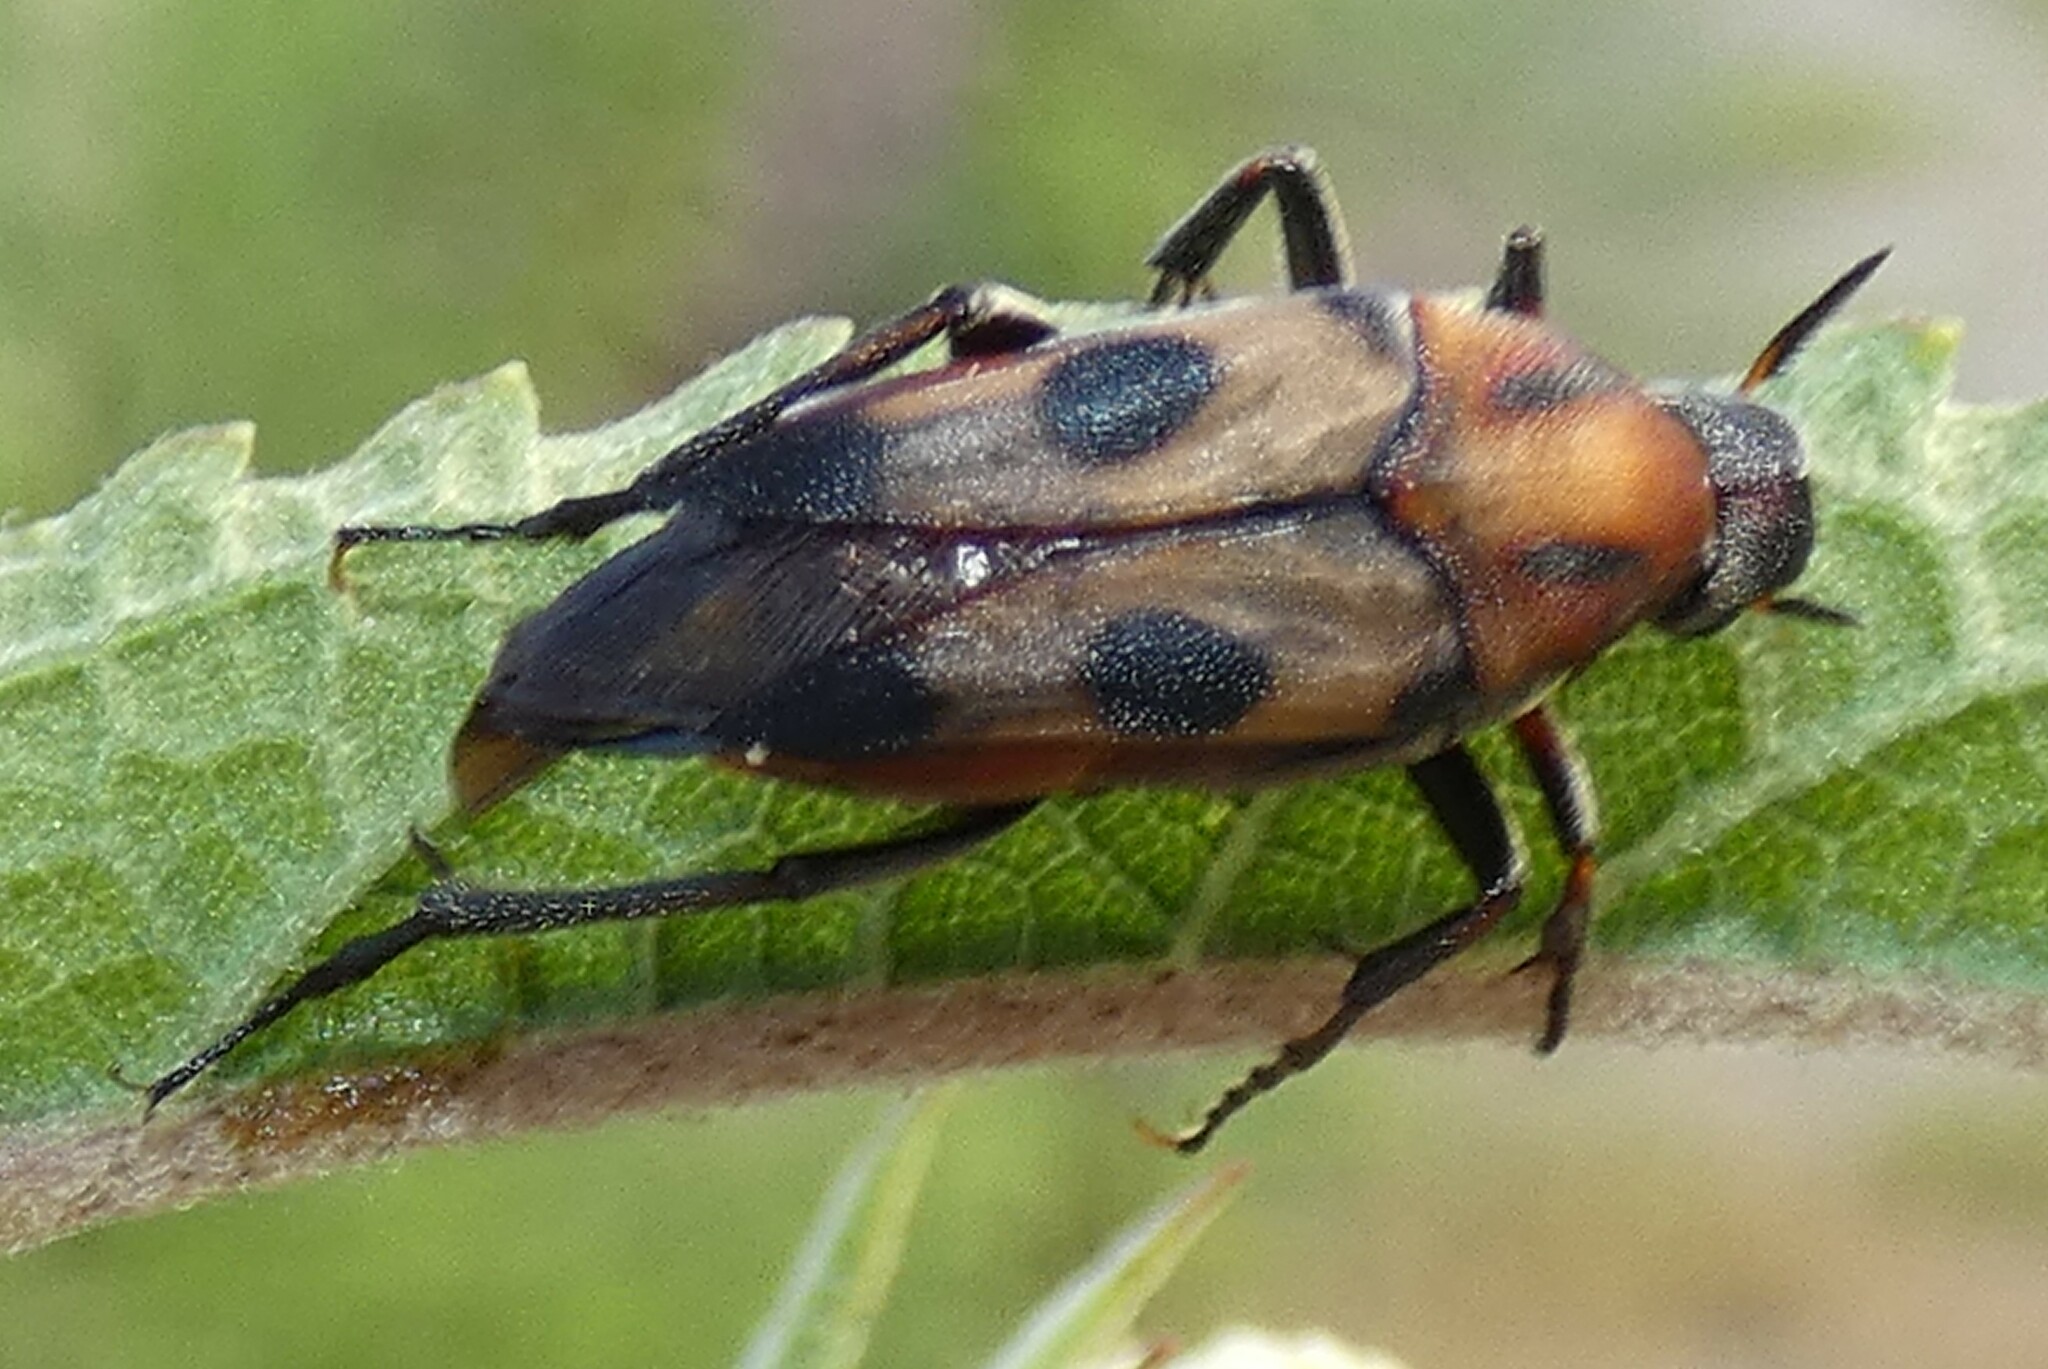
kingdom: Animalia
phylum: Arthropoda
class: Insecta
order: Coleoptera
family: Ripiphoridae
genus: Macrosiagon
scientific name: Macrosiagon octomaculatus
